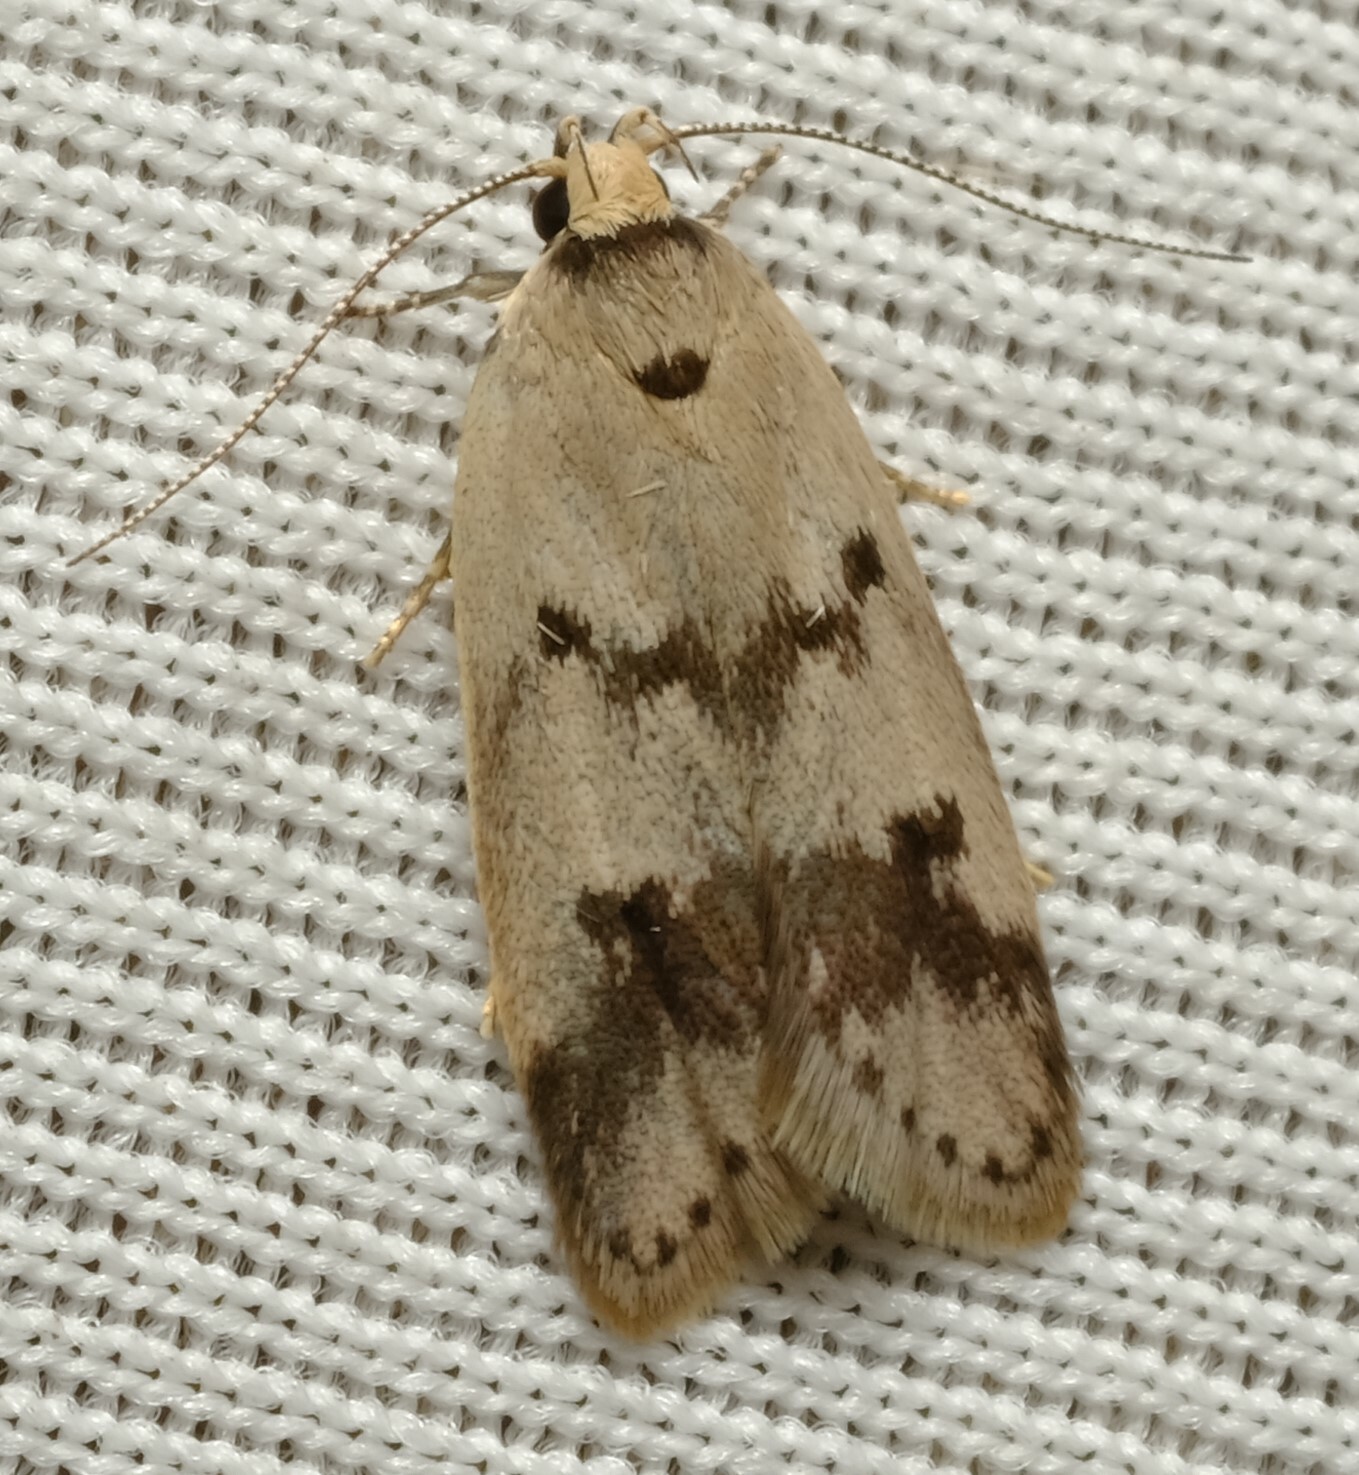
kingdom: Animalia
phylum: Arthropoda
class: Insecta
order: Lepidoptera
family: Oecophoridae
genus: Compsotropha
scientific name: Compsotropha strophiella
